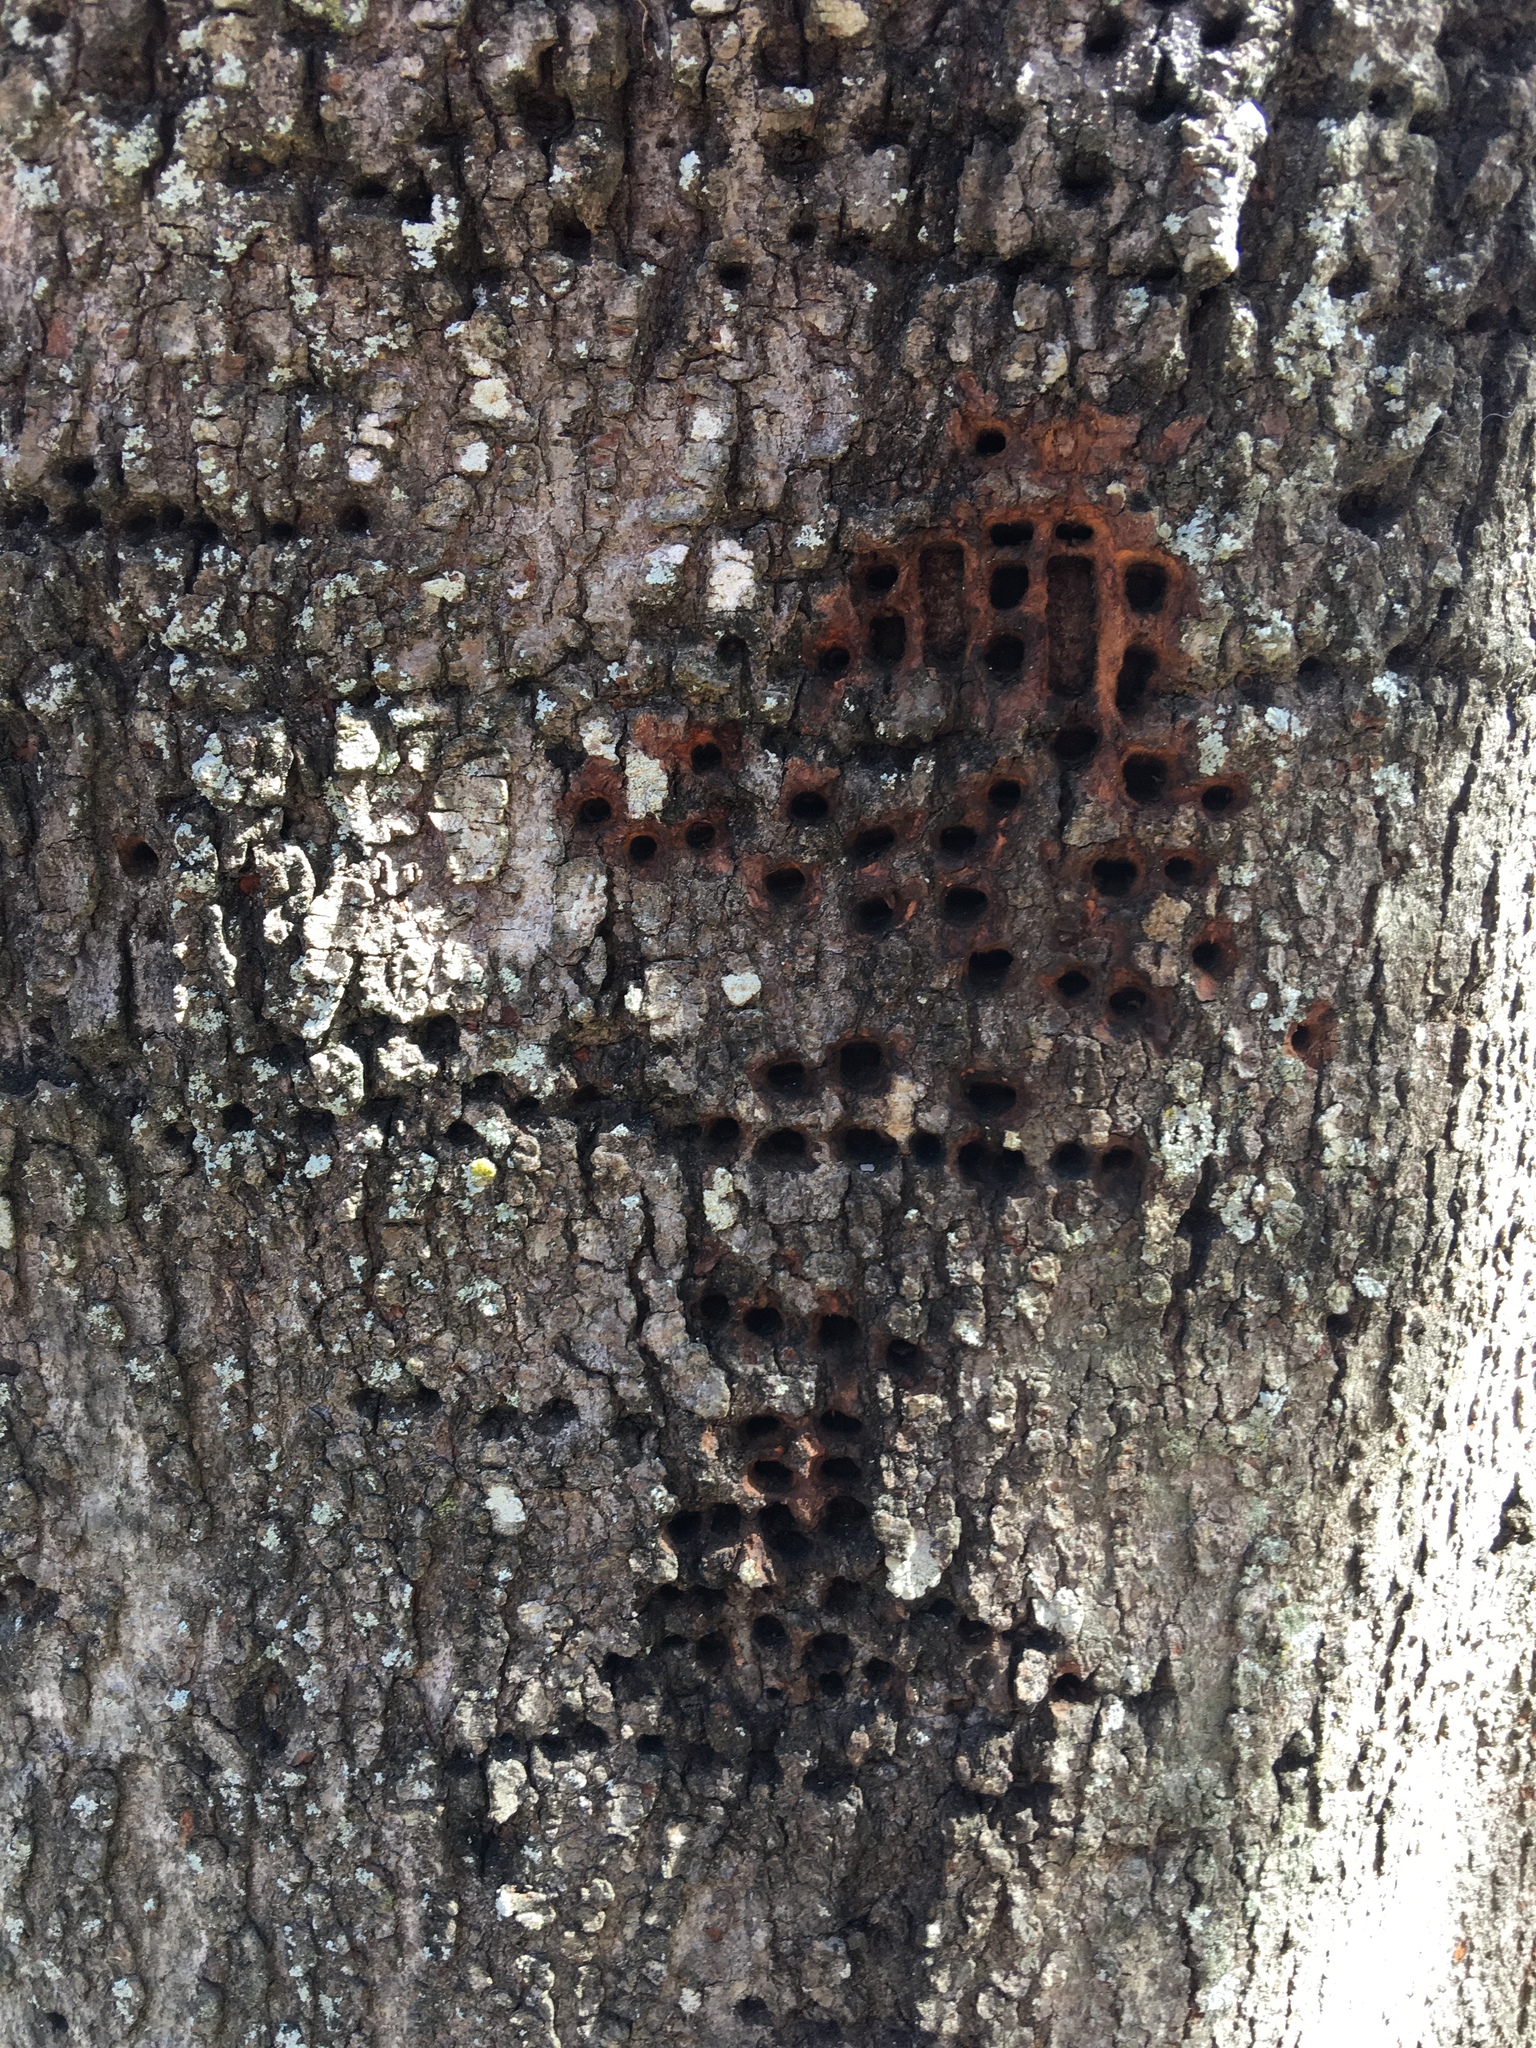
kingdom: Animalia
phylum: Chordata
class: Aves
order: Piciformes
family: Picidae
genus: Sphyrapicus
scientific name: Sphyrapicus varius
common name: Yellow-bellied sapsucker
